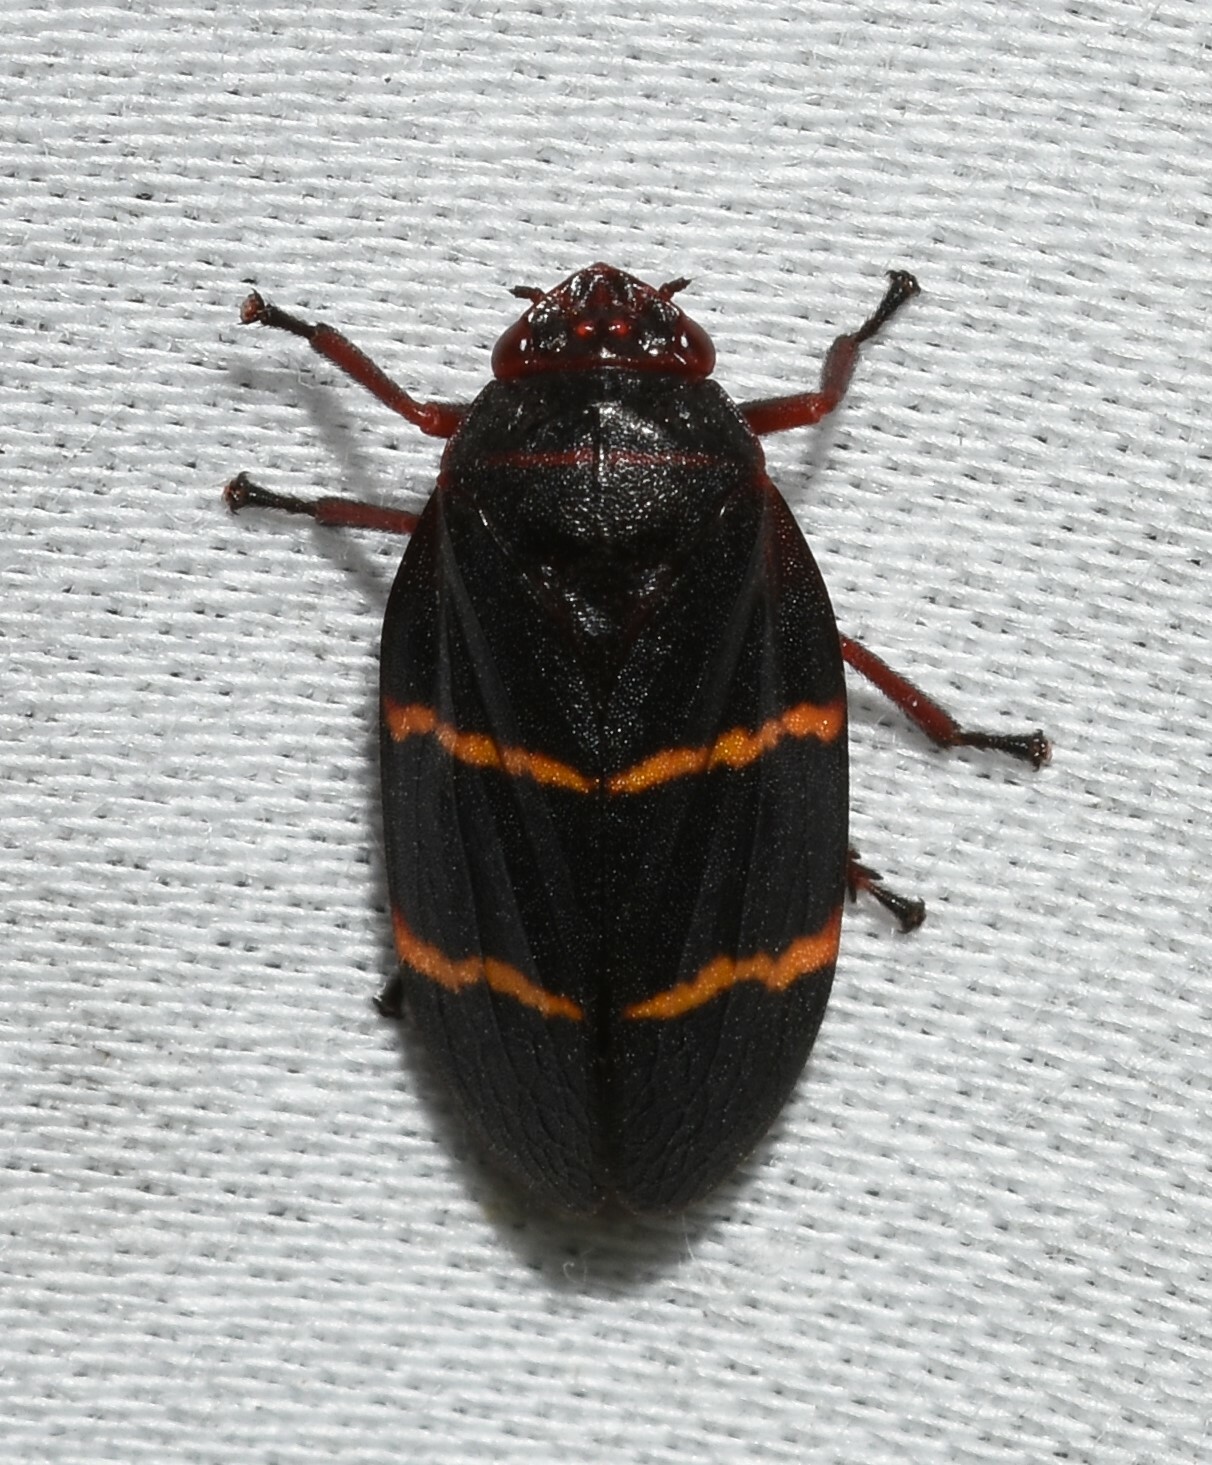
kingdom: Animalia
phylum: Arthropoda
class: Insecta
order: Hemiptera
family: Cercopidae
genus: Prosapia
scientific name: Prosapia bicincta
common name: Twolined spittlebug
